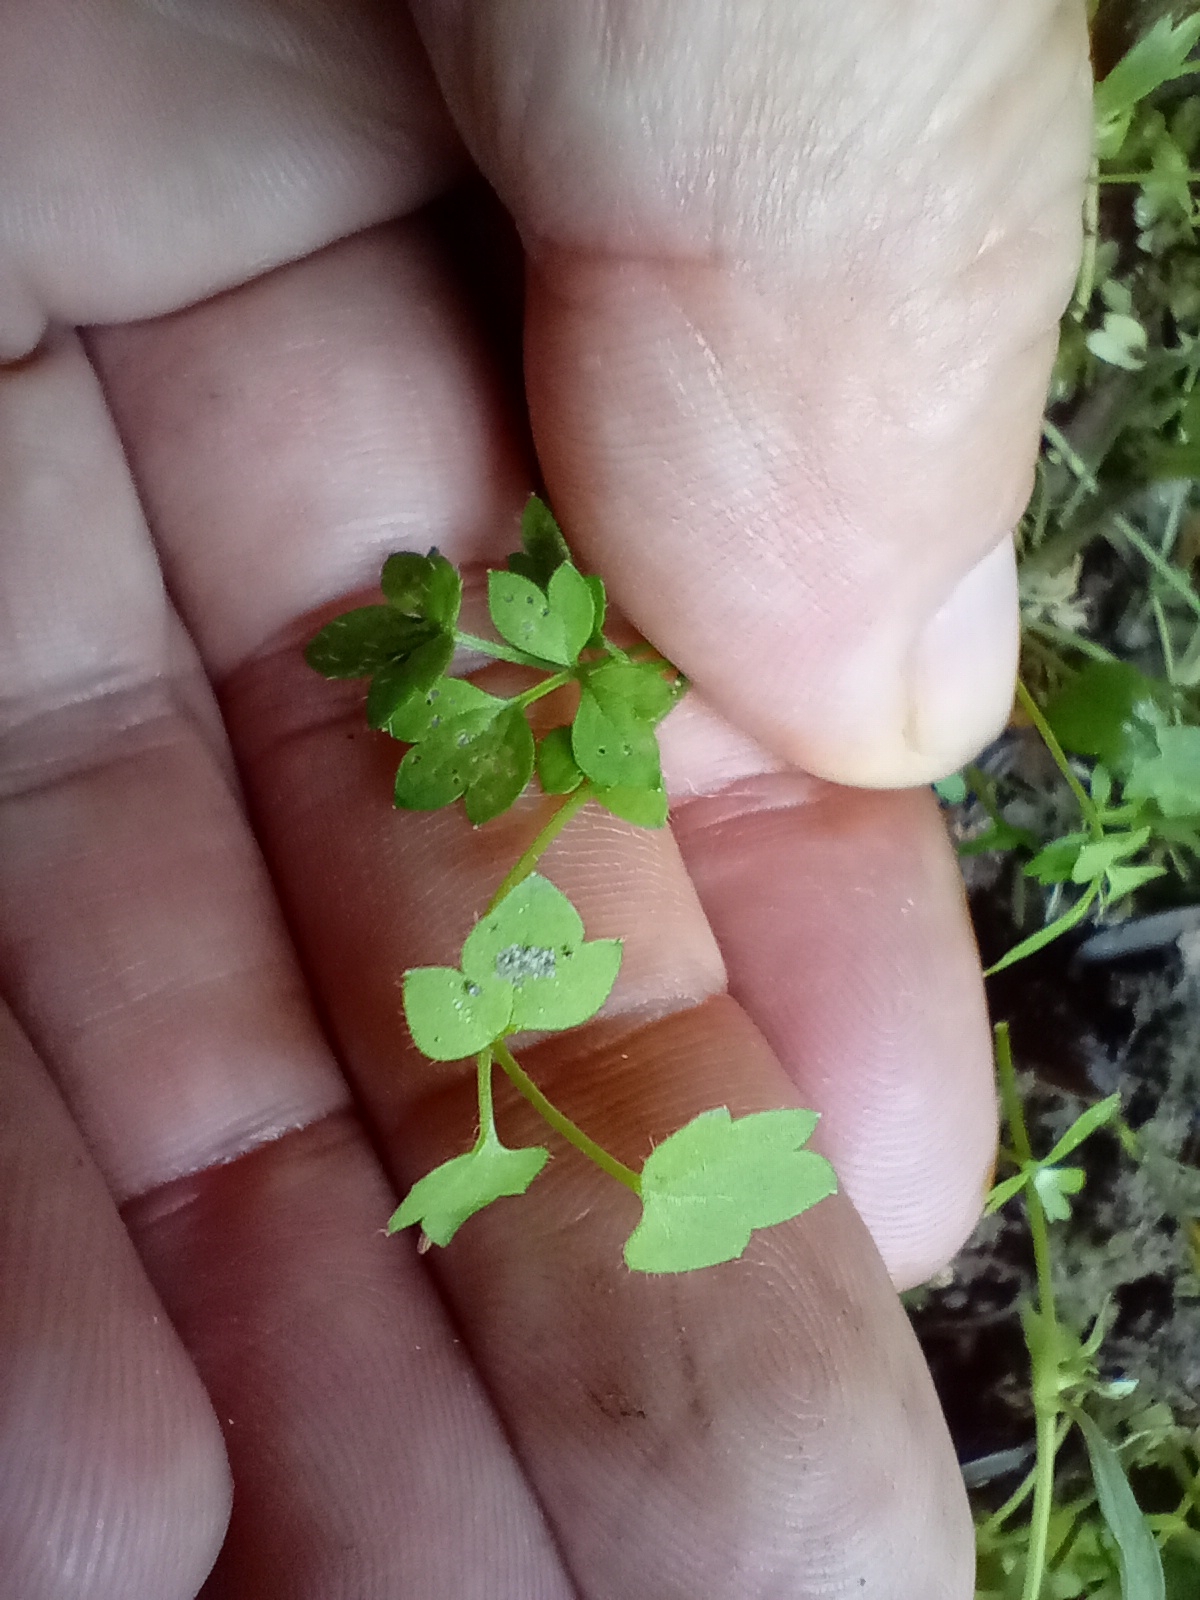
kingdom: Plantae
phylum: Tracheophyta
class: Magnoliopsida
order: Ranunculales
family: Ranunculaceae
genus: Ranunculus
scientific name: Ranunculus ternatifolius
